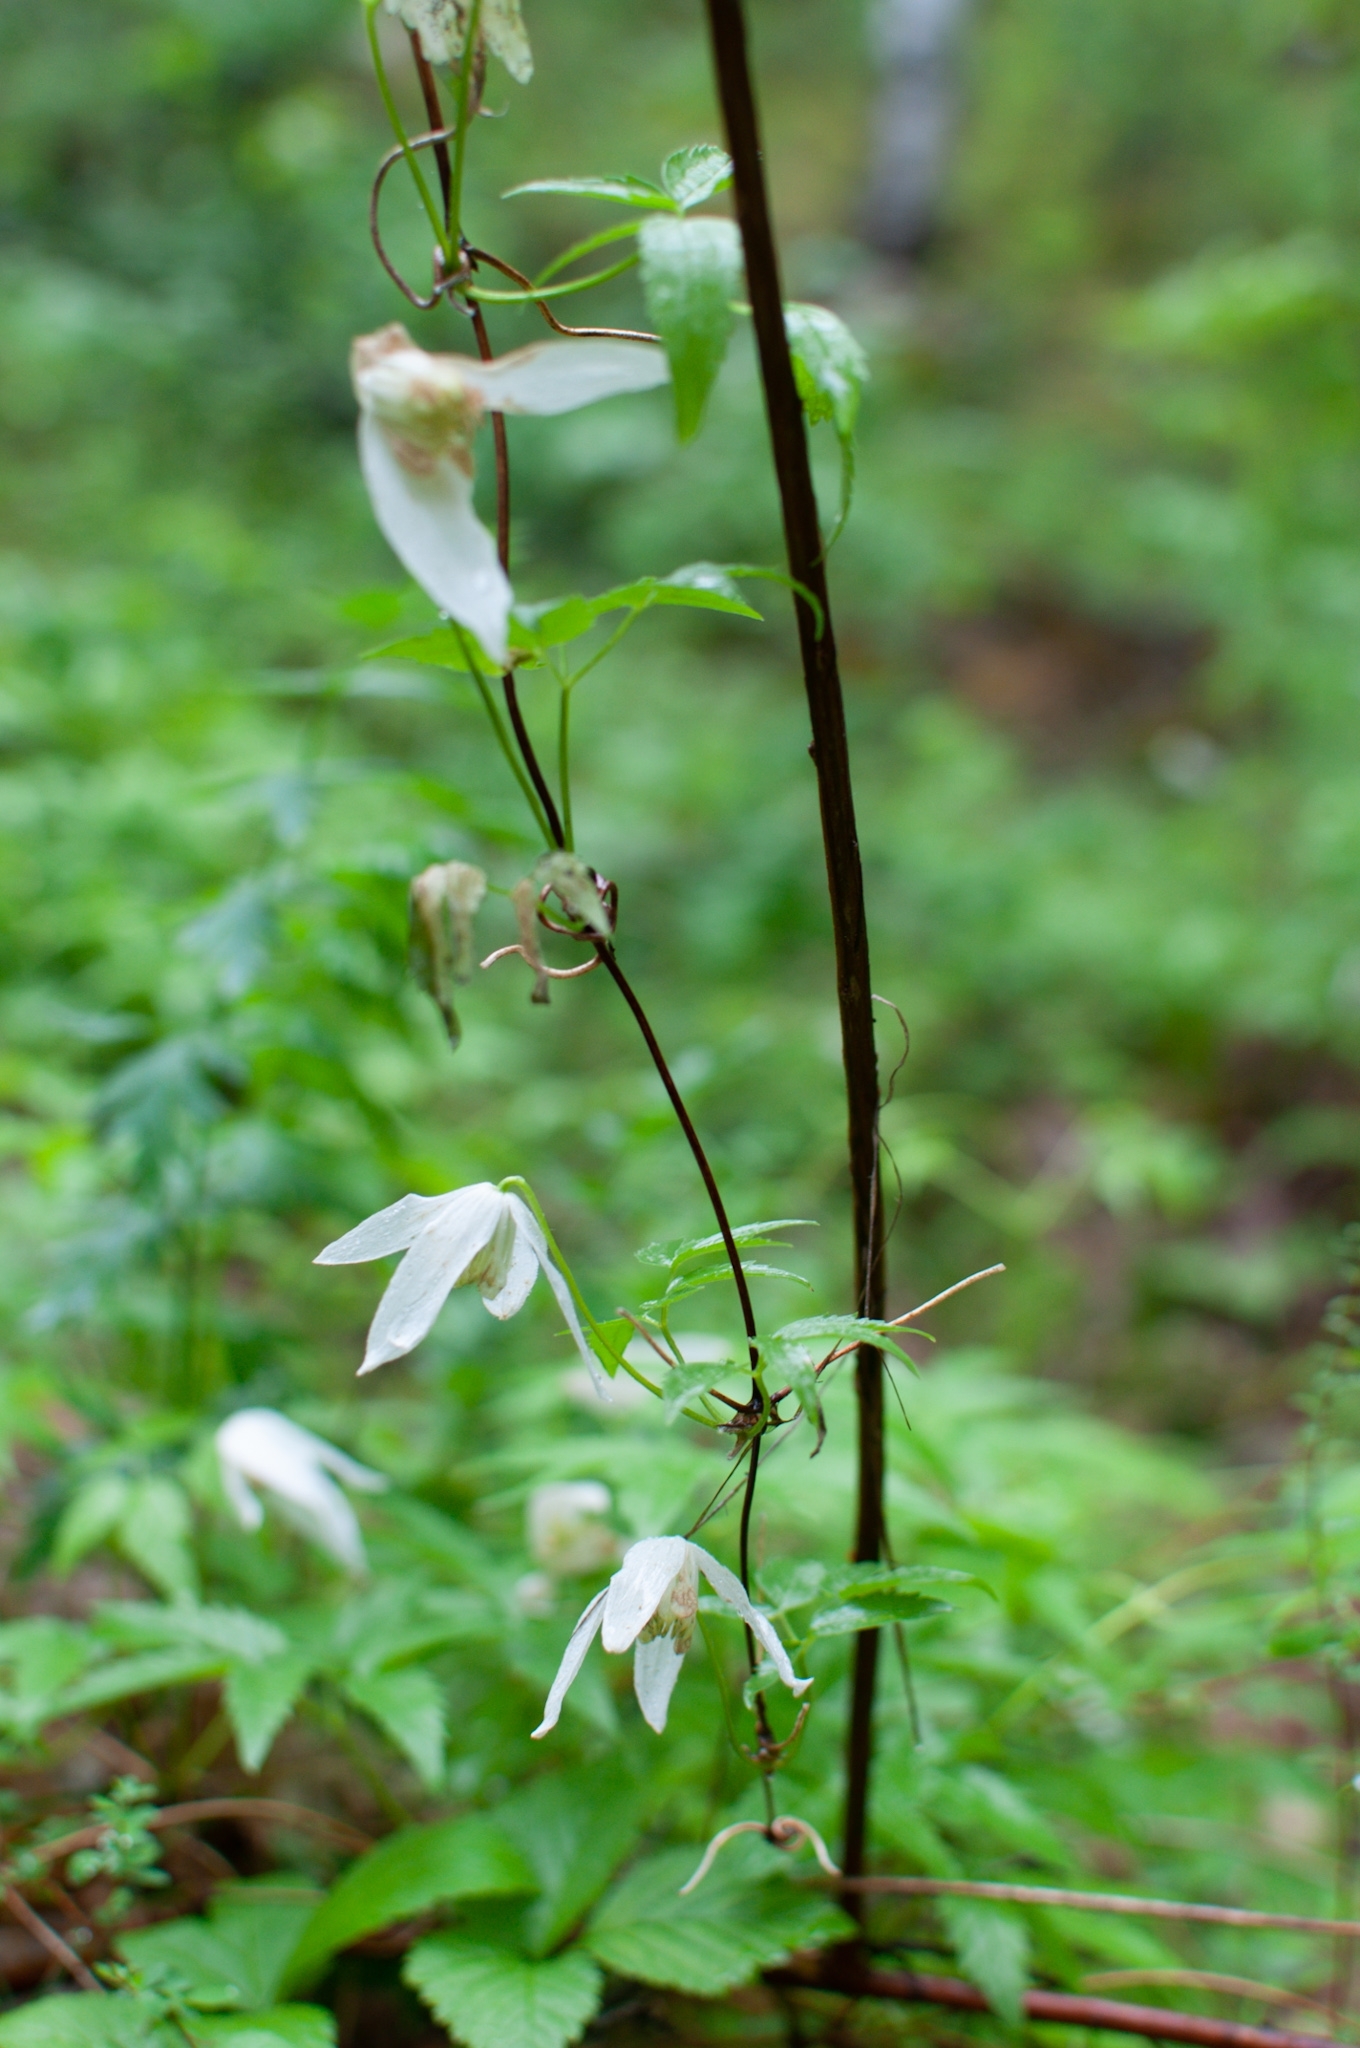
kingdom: Plantae
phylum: Tracheophyta
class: Magnoliopsida
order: Ranunculales
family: Ranunculaceae
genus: Clematis
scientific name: Clematis sibirica
